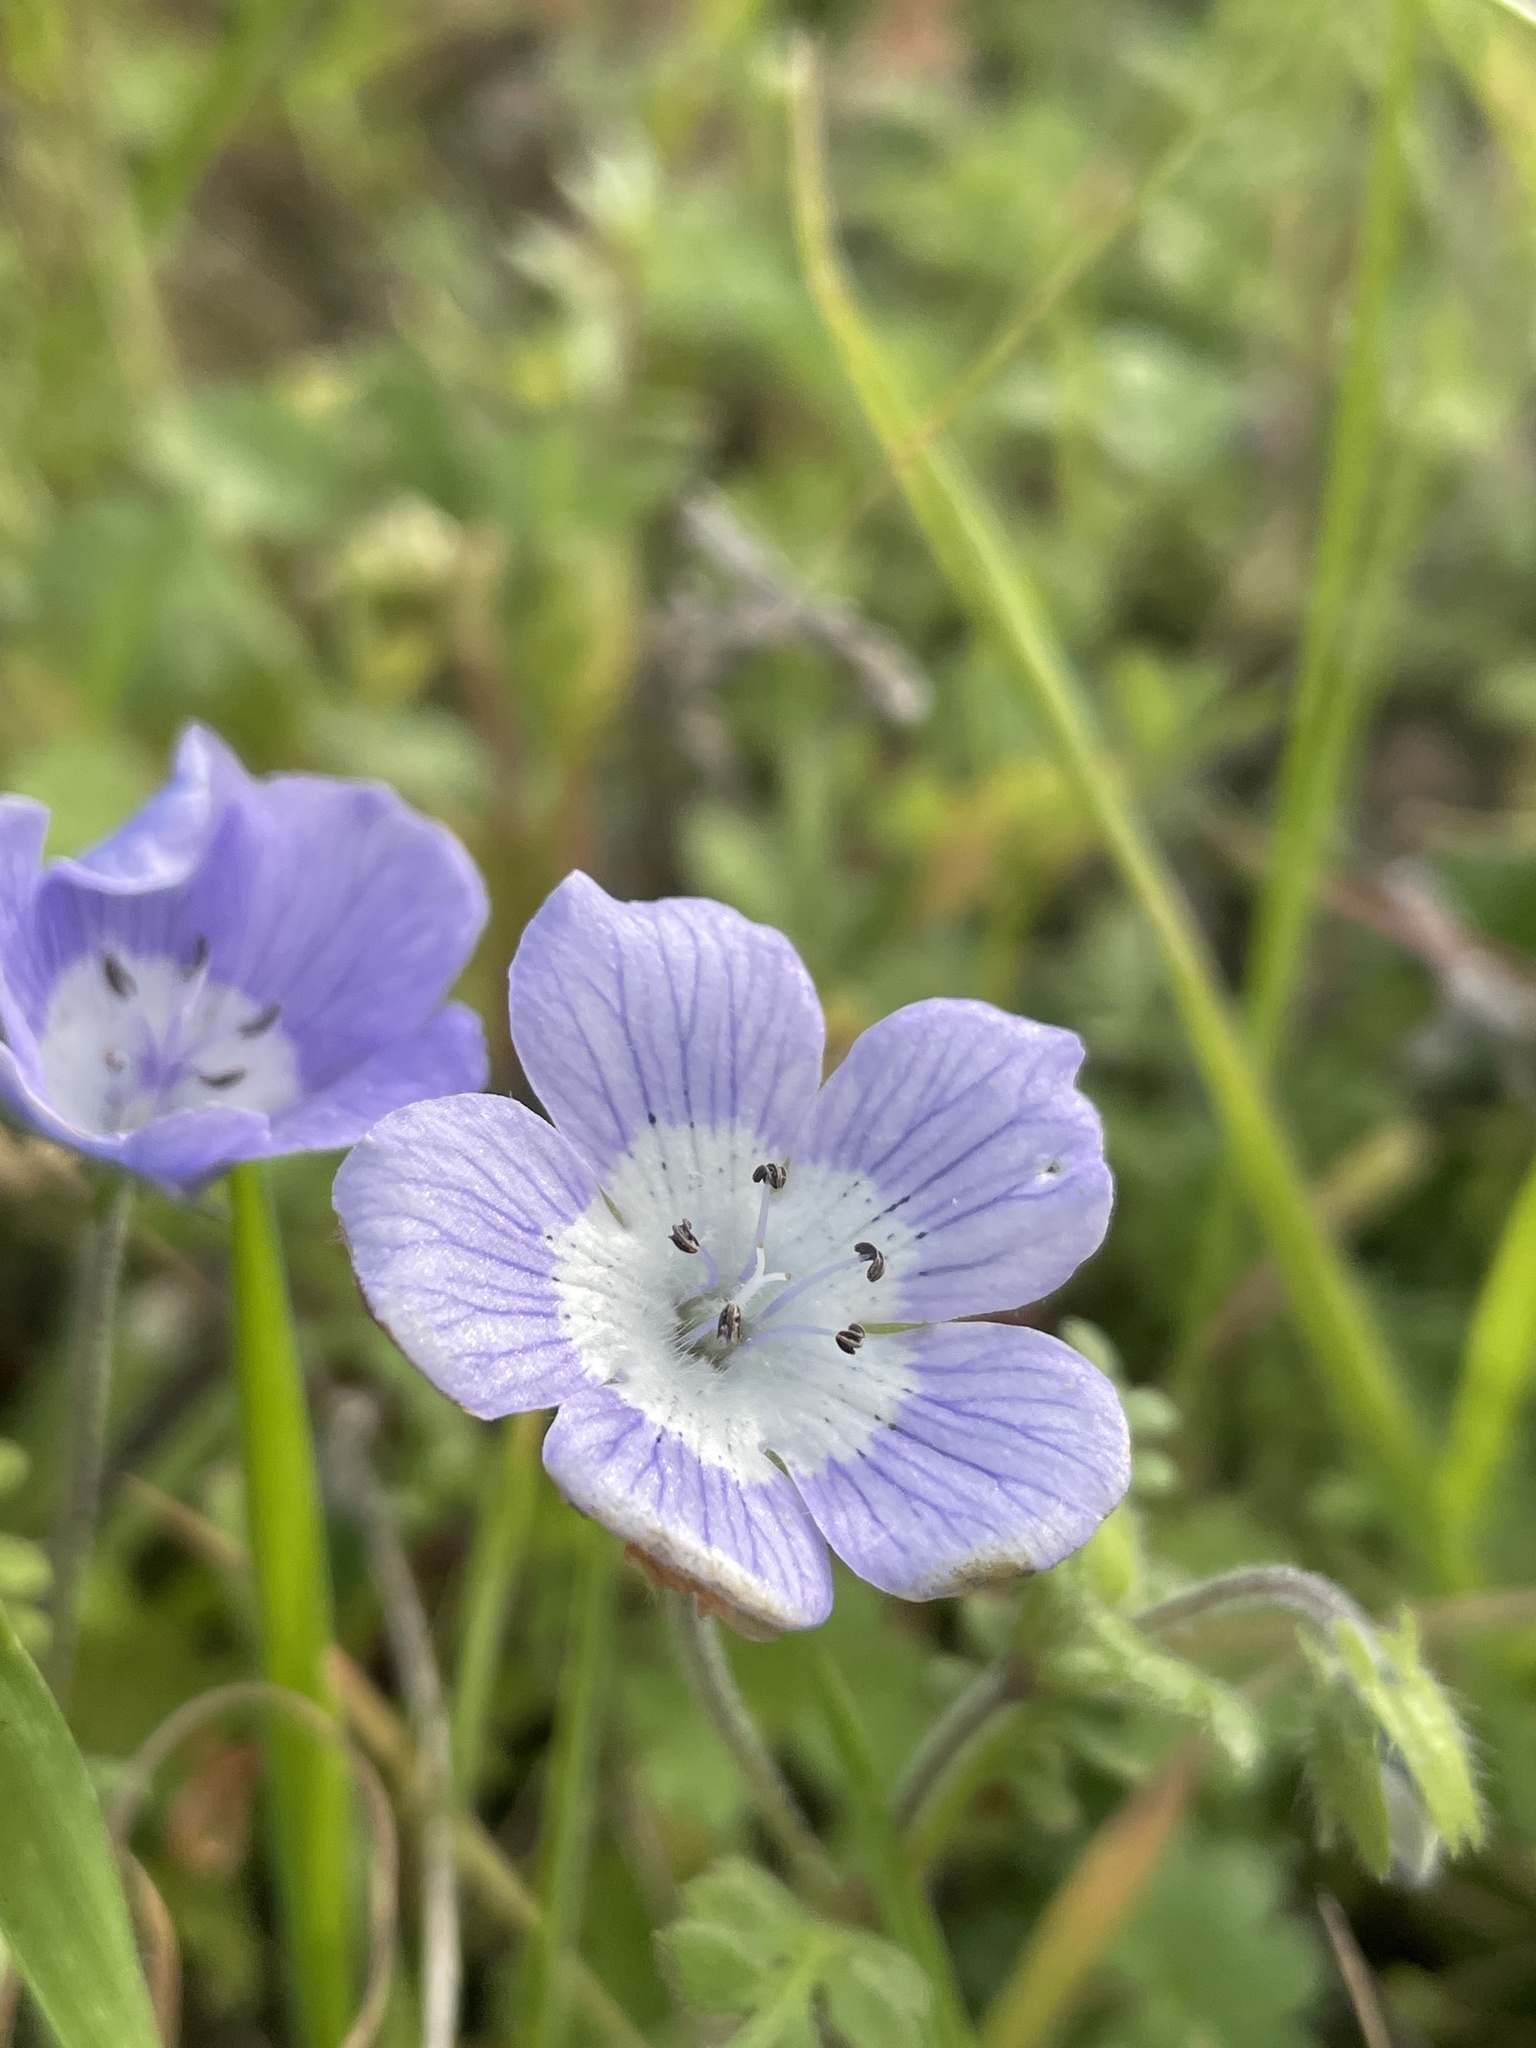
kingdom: Plantae
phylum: Tracheophyta
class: Magnoliopsida
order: Boraginales
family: Hydrophyllaceae
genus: Nemophila
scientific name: Nemophila menziesii
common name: Baby's-blue-eyes
